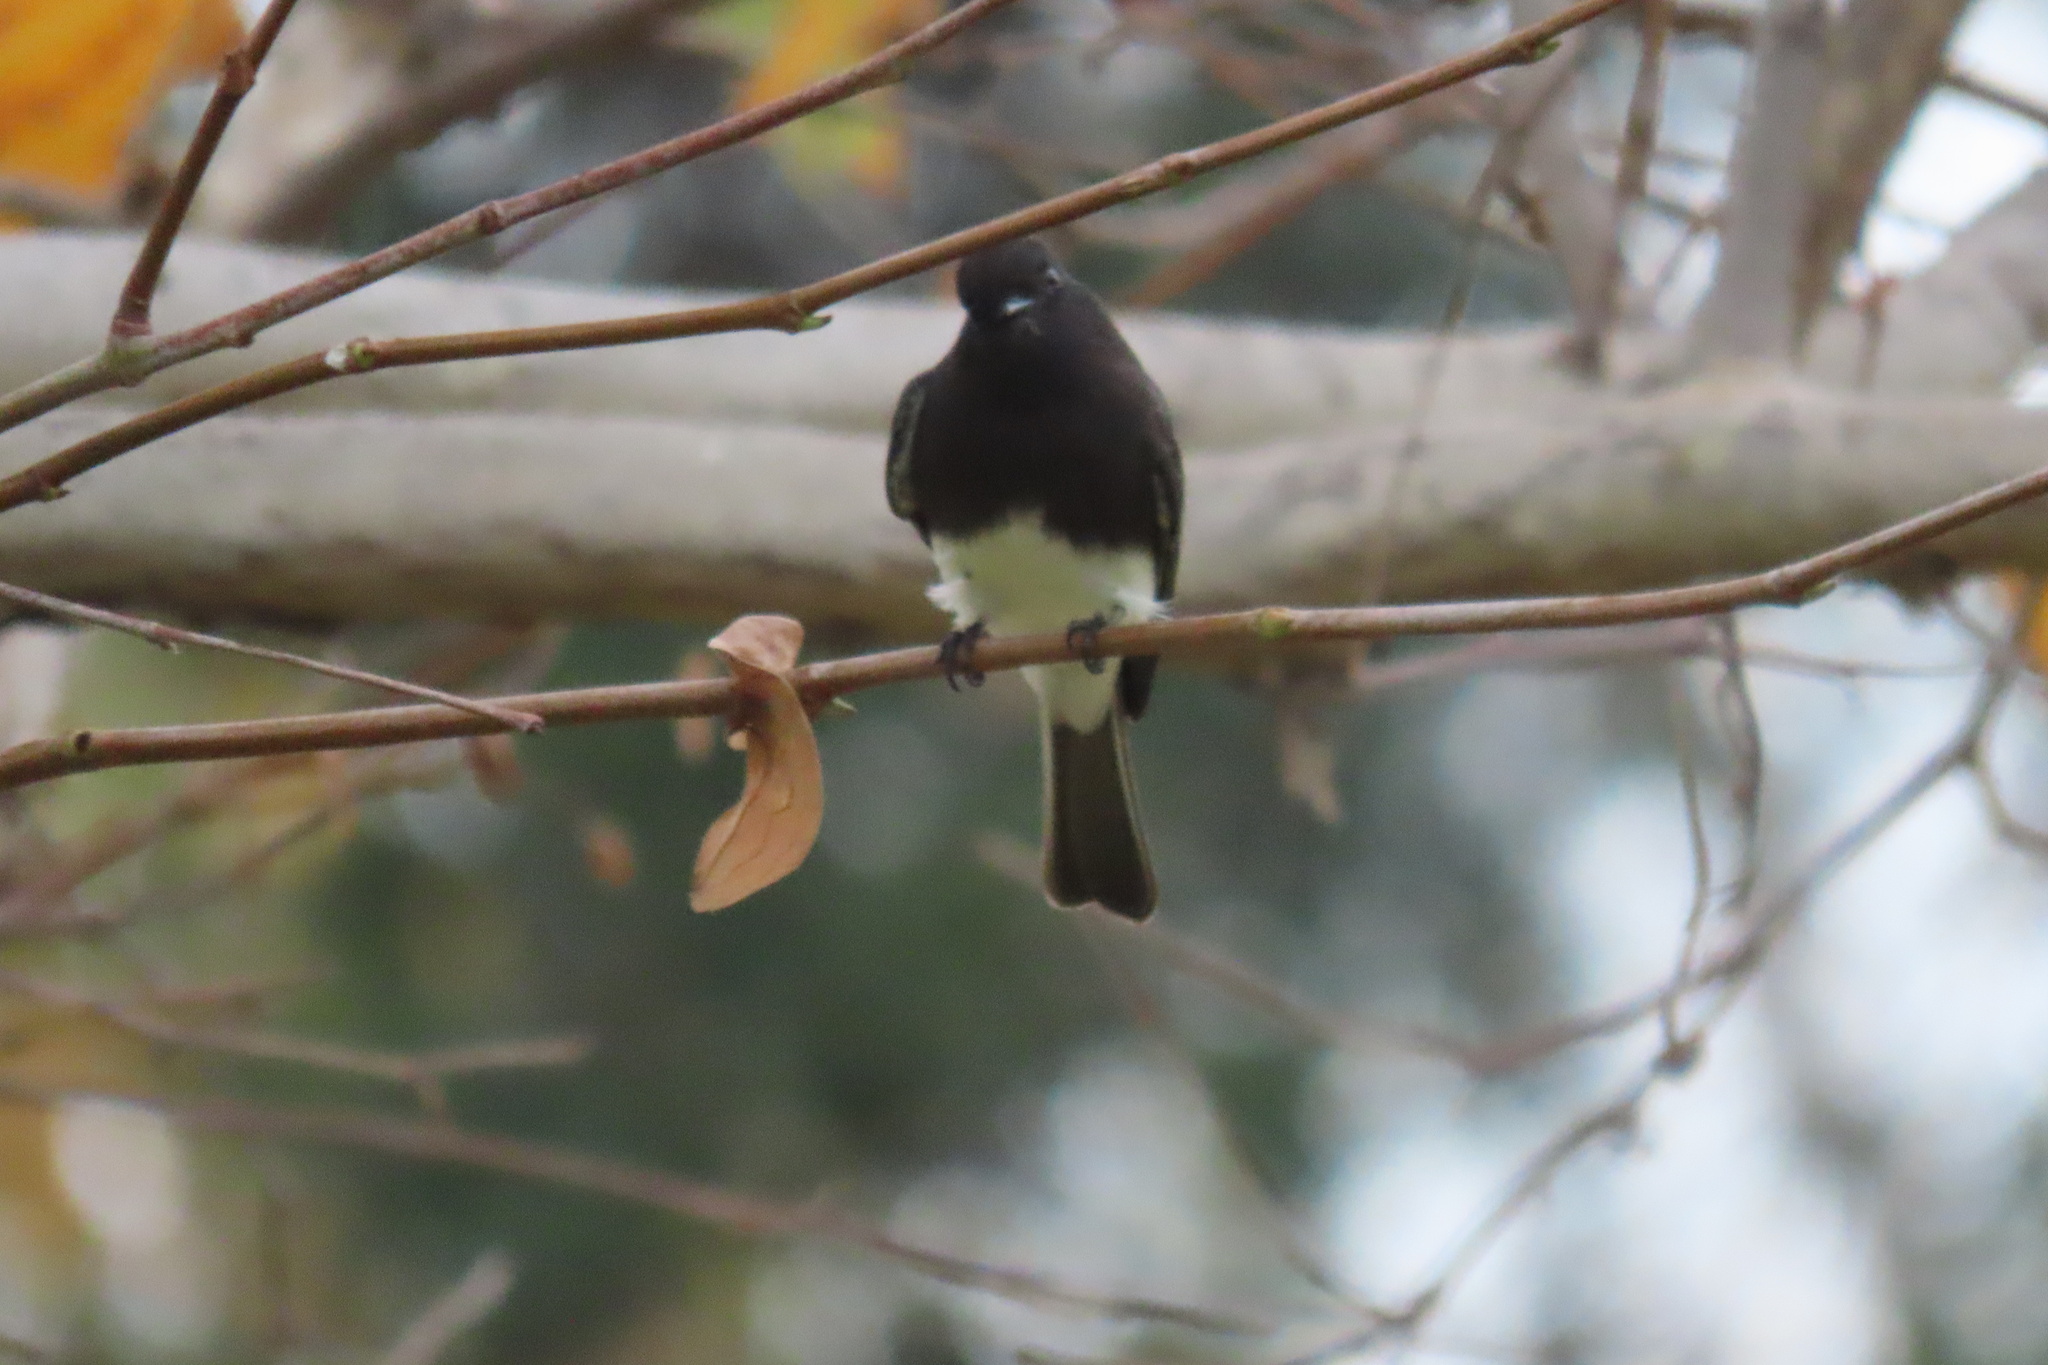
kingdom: Animalia
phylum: Chordata
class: Aves
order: Passeriformes
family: Tyrannidae
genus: Sayornis
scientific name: Sayornis nigricans
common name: Black phoebe
